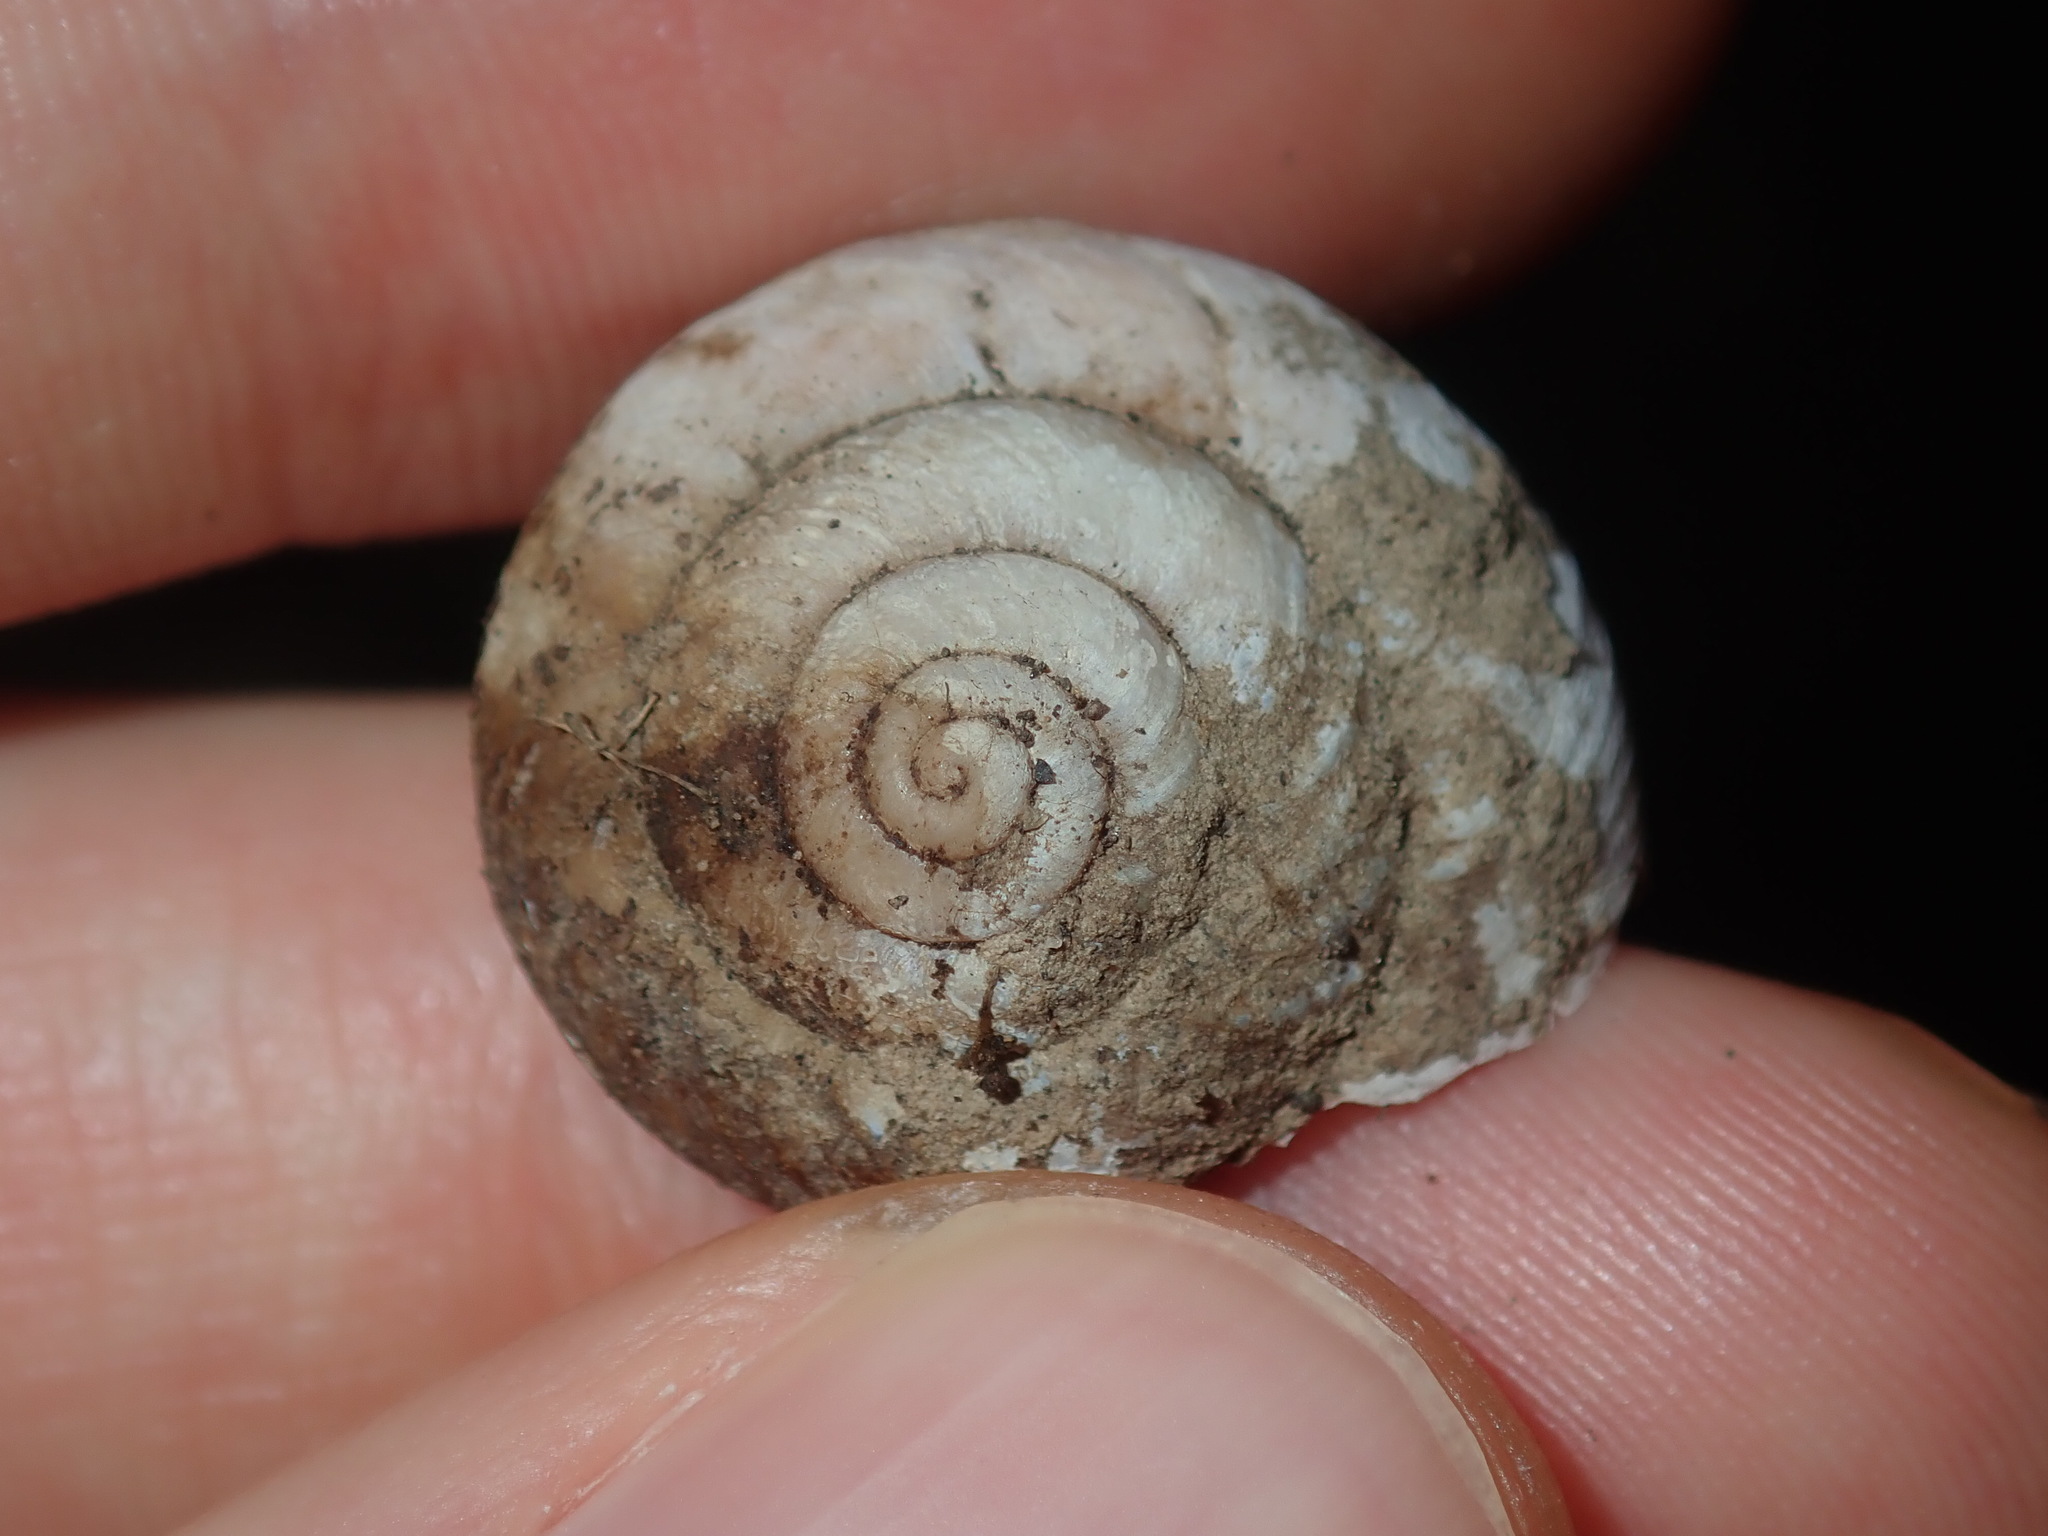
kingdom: Animalia
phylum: Mollusca
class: Gastropoda
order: Stylommatophora
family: Camaenidae
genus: Sauroconcha
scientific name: Sauroconcha sheai
